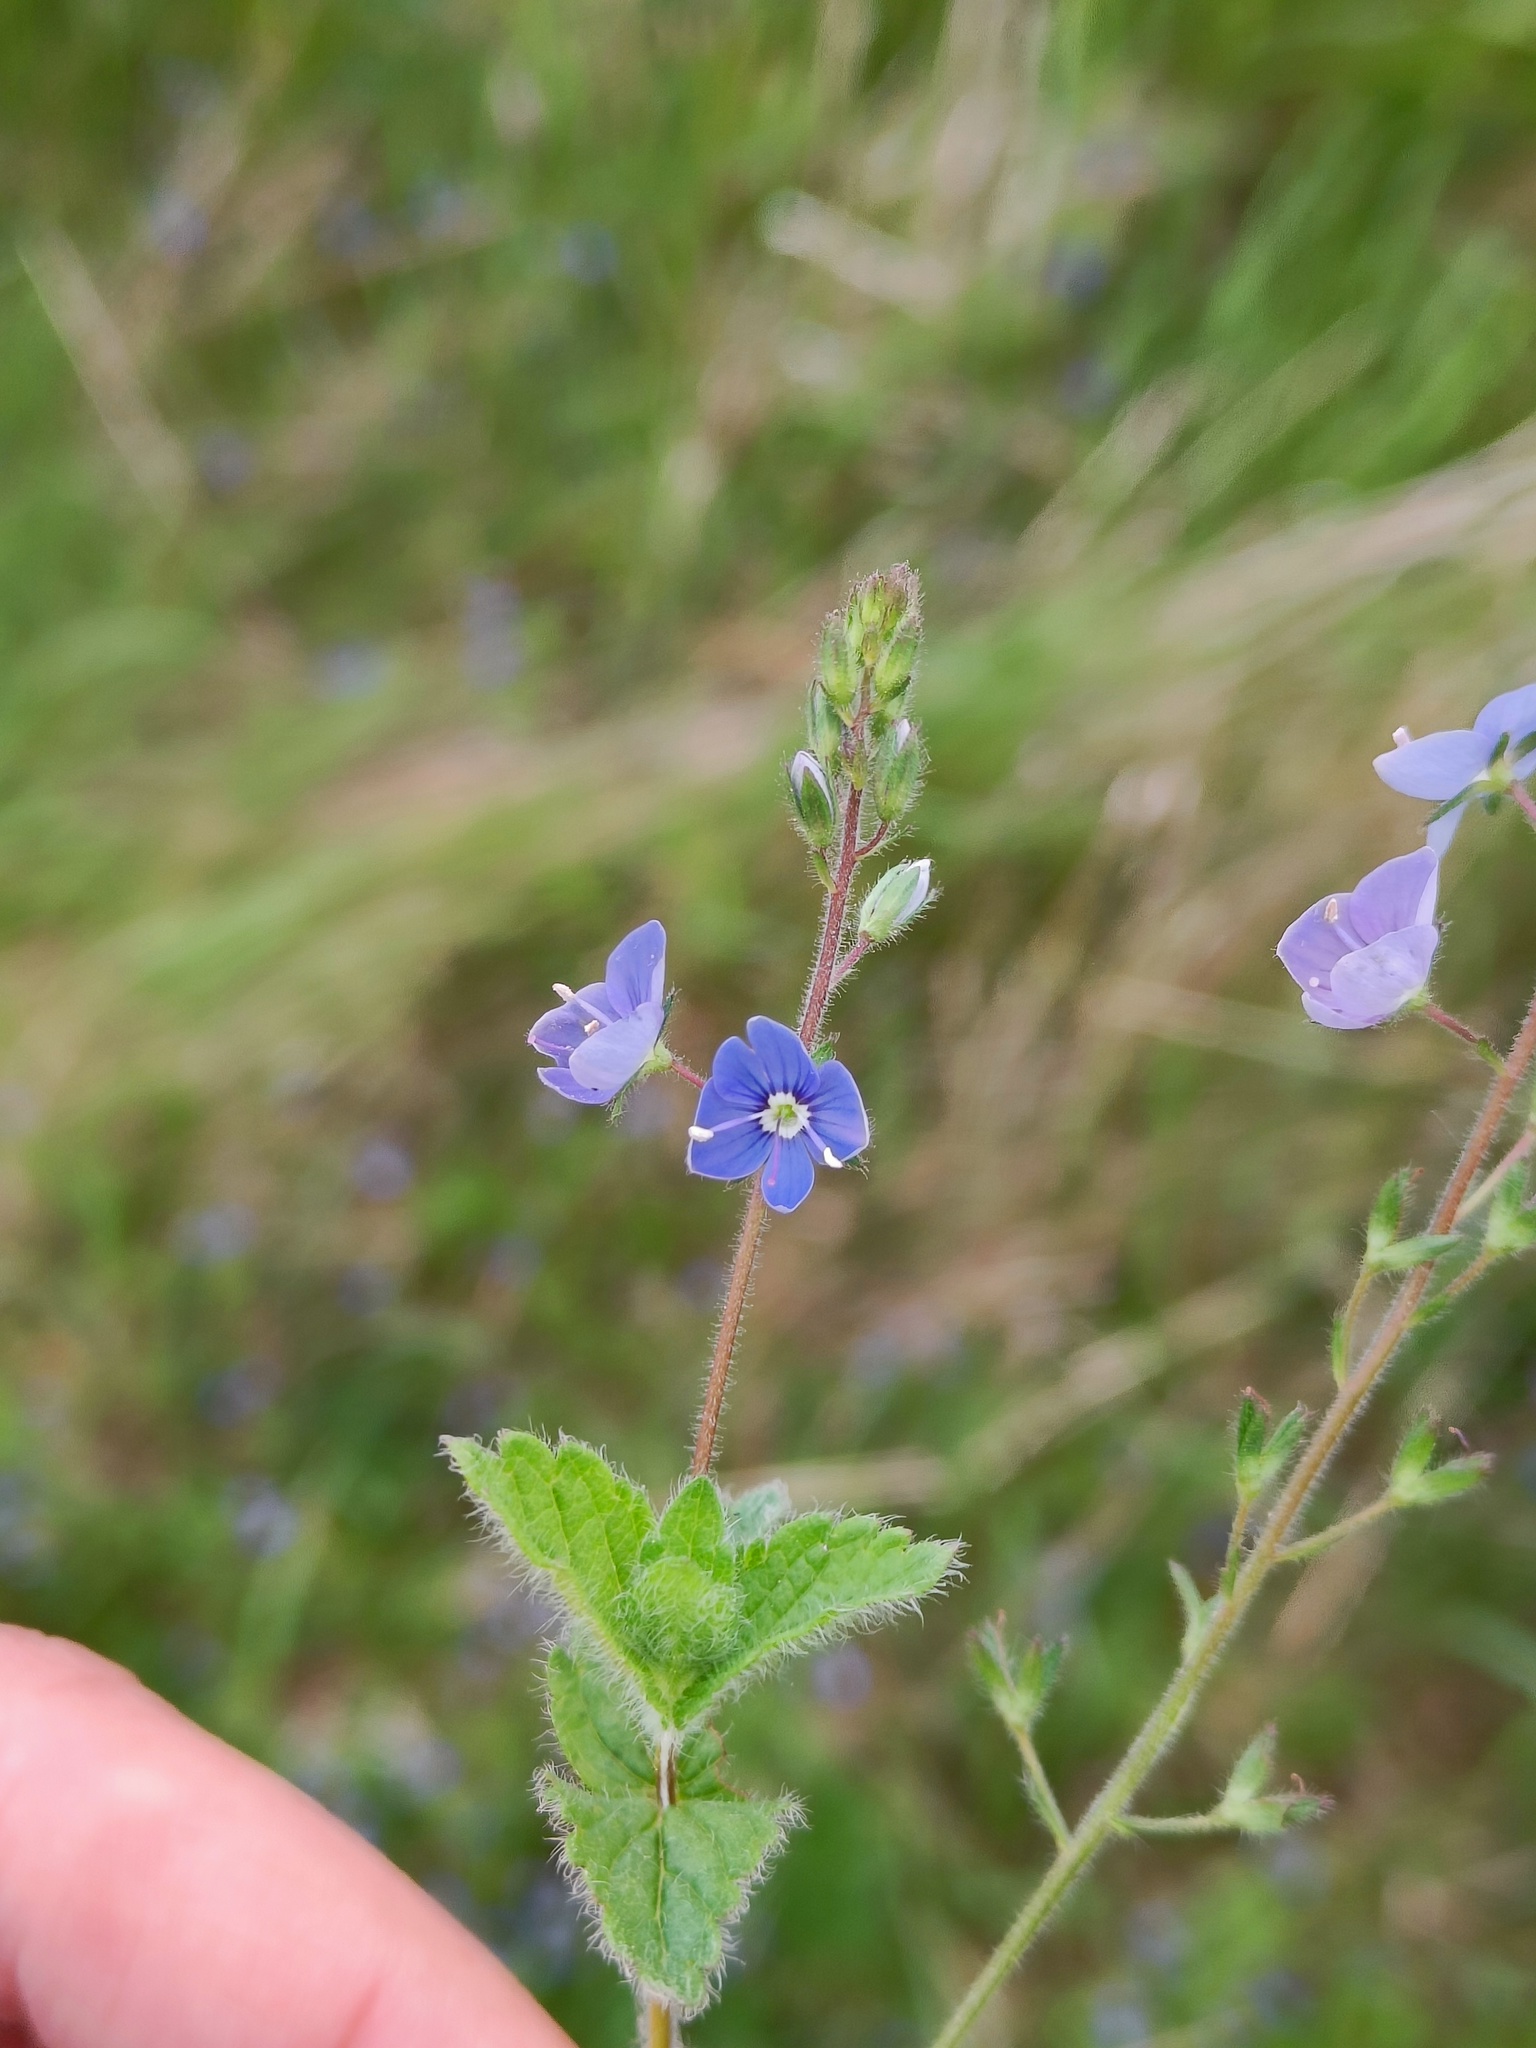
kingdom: Plantae
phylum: Tracheophyta
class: Magnoliopsida
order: Lamiales
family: Plantaginaceae
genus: Veronica
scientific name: Veronica chamaedrys
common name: Germander speedwell
